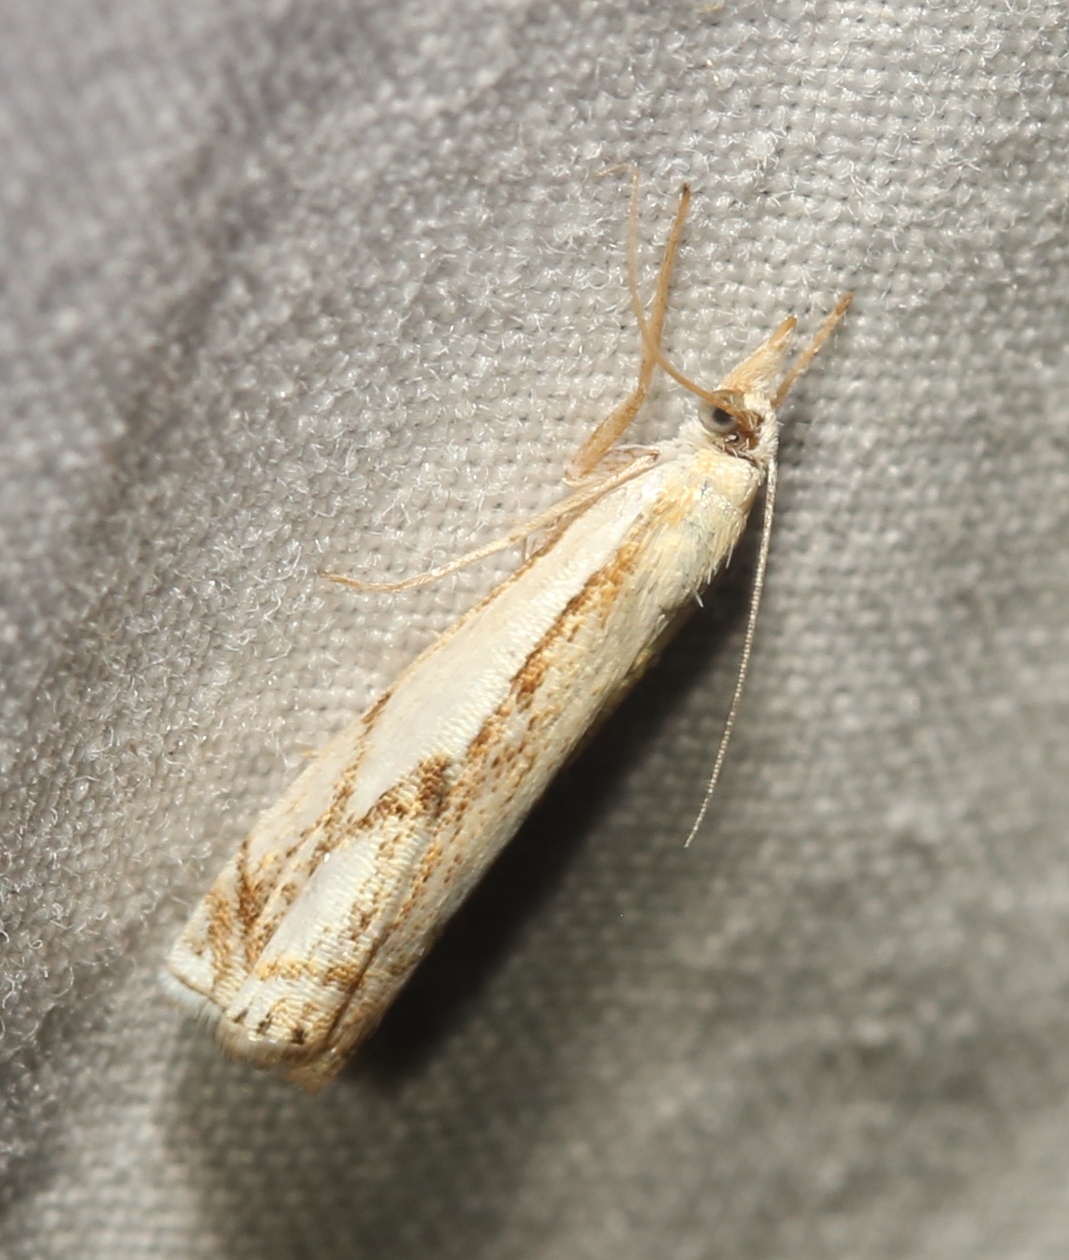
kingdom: Animalia
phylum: Arthropoda
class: Insecta
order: Lepidoptera
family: Crambidae
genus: Crambus
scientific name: Crambus agitatellus
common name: Double-banded grass-veneer
